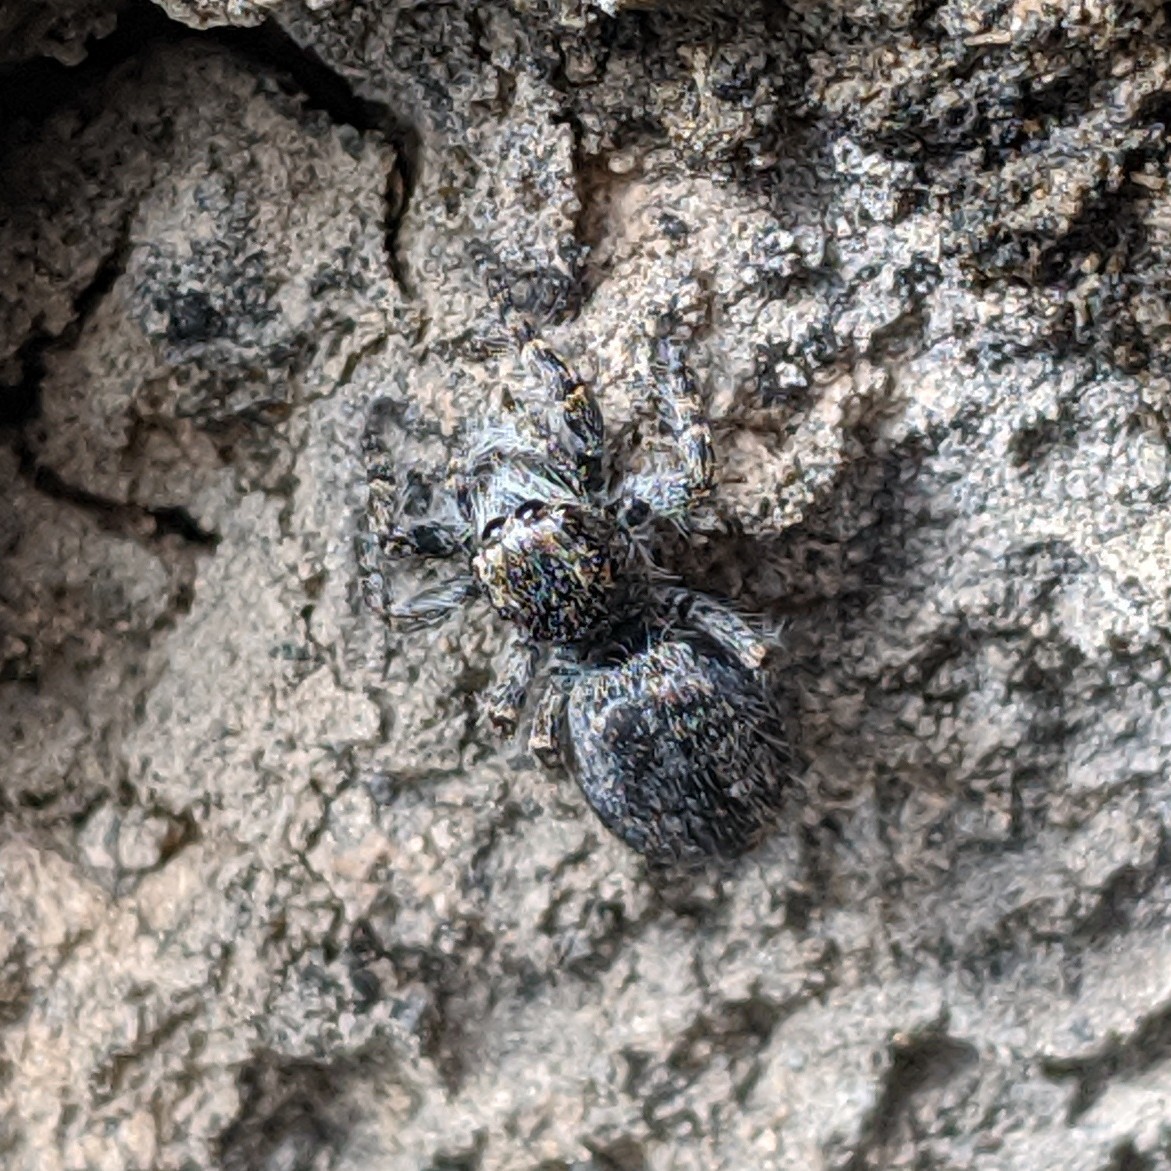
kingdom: Animalia
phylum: Arthropoda
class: Arachnida
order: Araneae
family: Salticidae
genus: Philaeus
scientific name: Philaeus chrysops
